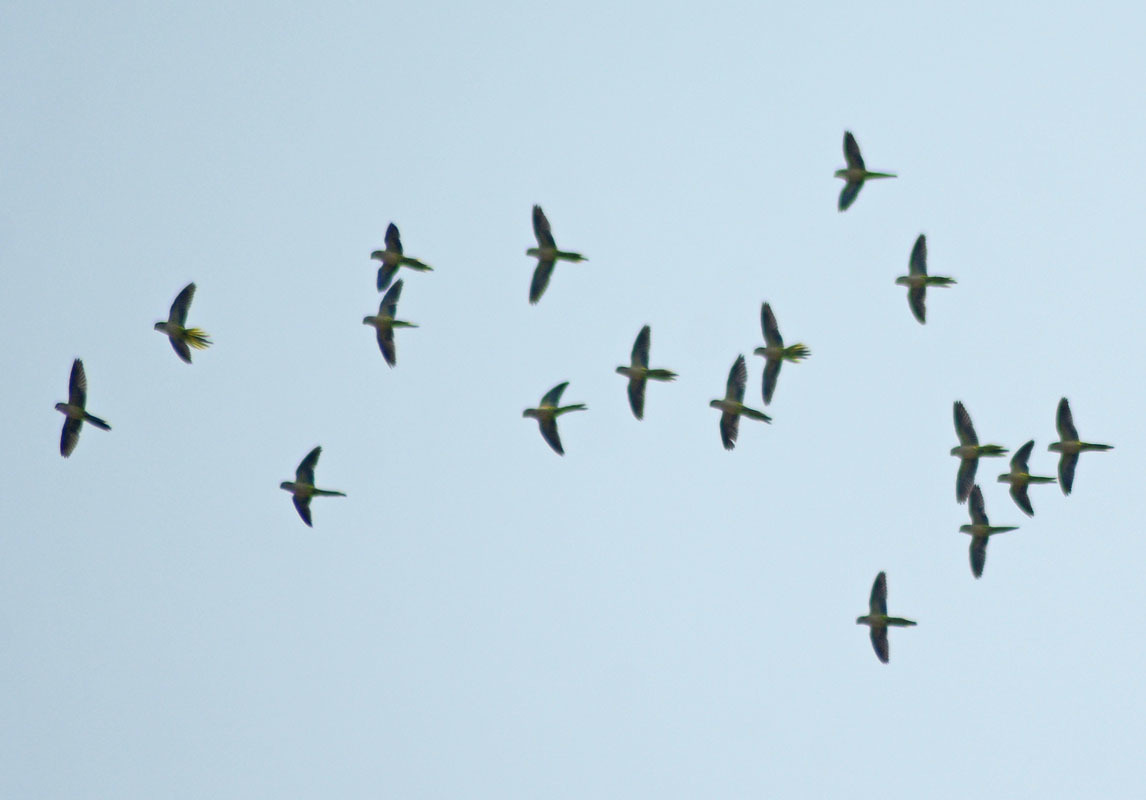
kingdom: Animalia
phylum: Chordata
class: Aves
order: Psittaciformes
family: Psittacidae
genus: Myiopsitta
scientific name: Myiopsitta monachus
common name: Monk parakeet
